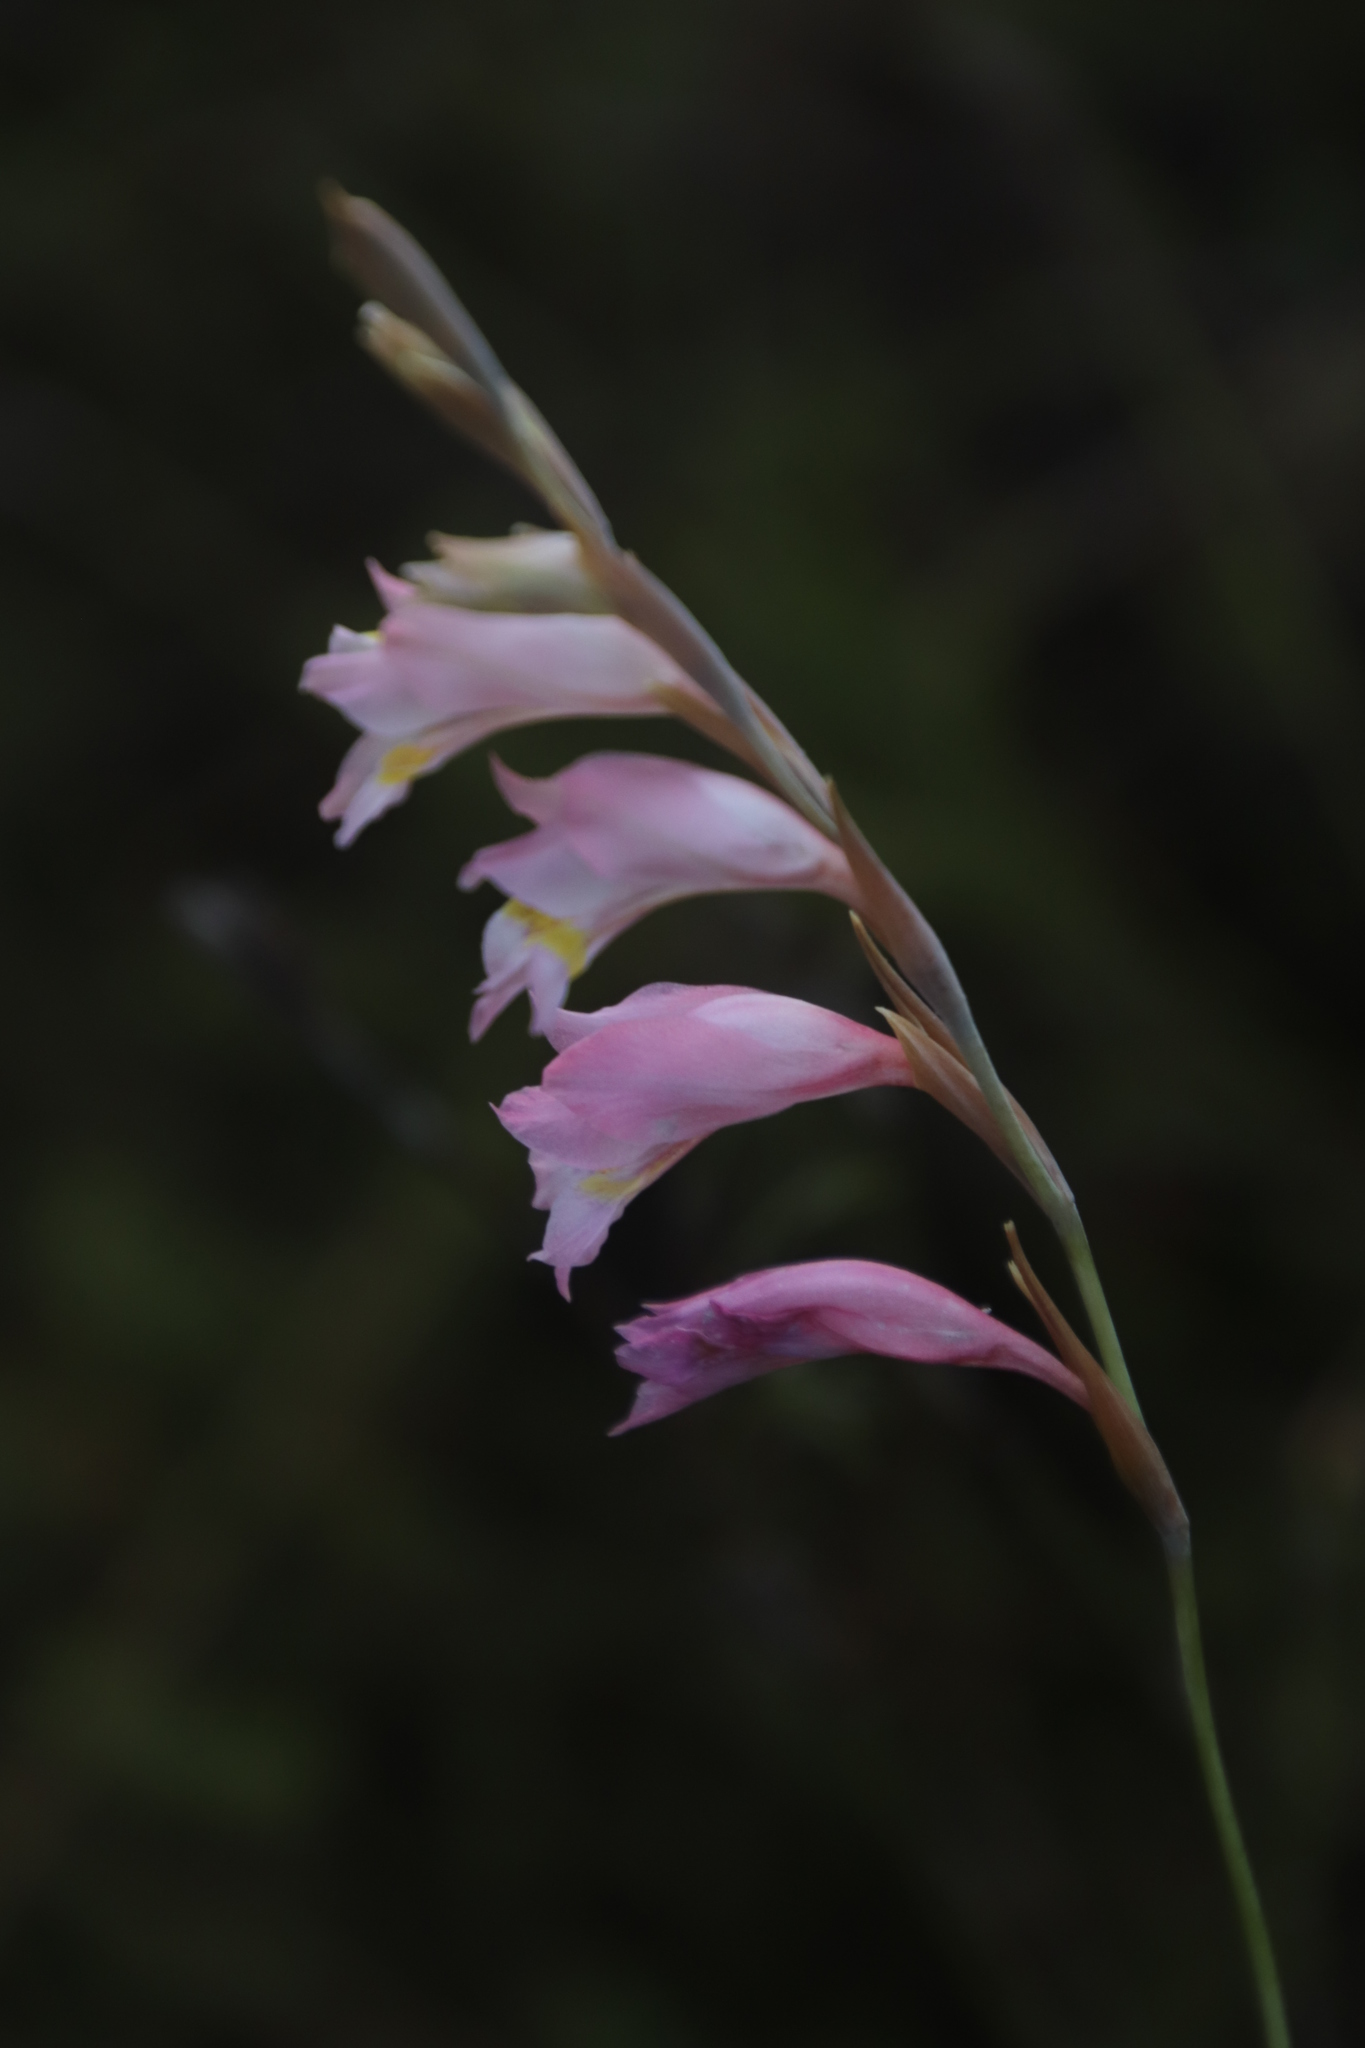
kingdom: Plantae
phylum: Tracheophyta
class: Liliopsida
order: Asparagales
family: Iridaceae
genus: Gladiolus
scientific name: Gladiolus brevifolius
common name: March pypie
